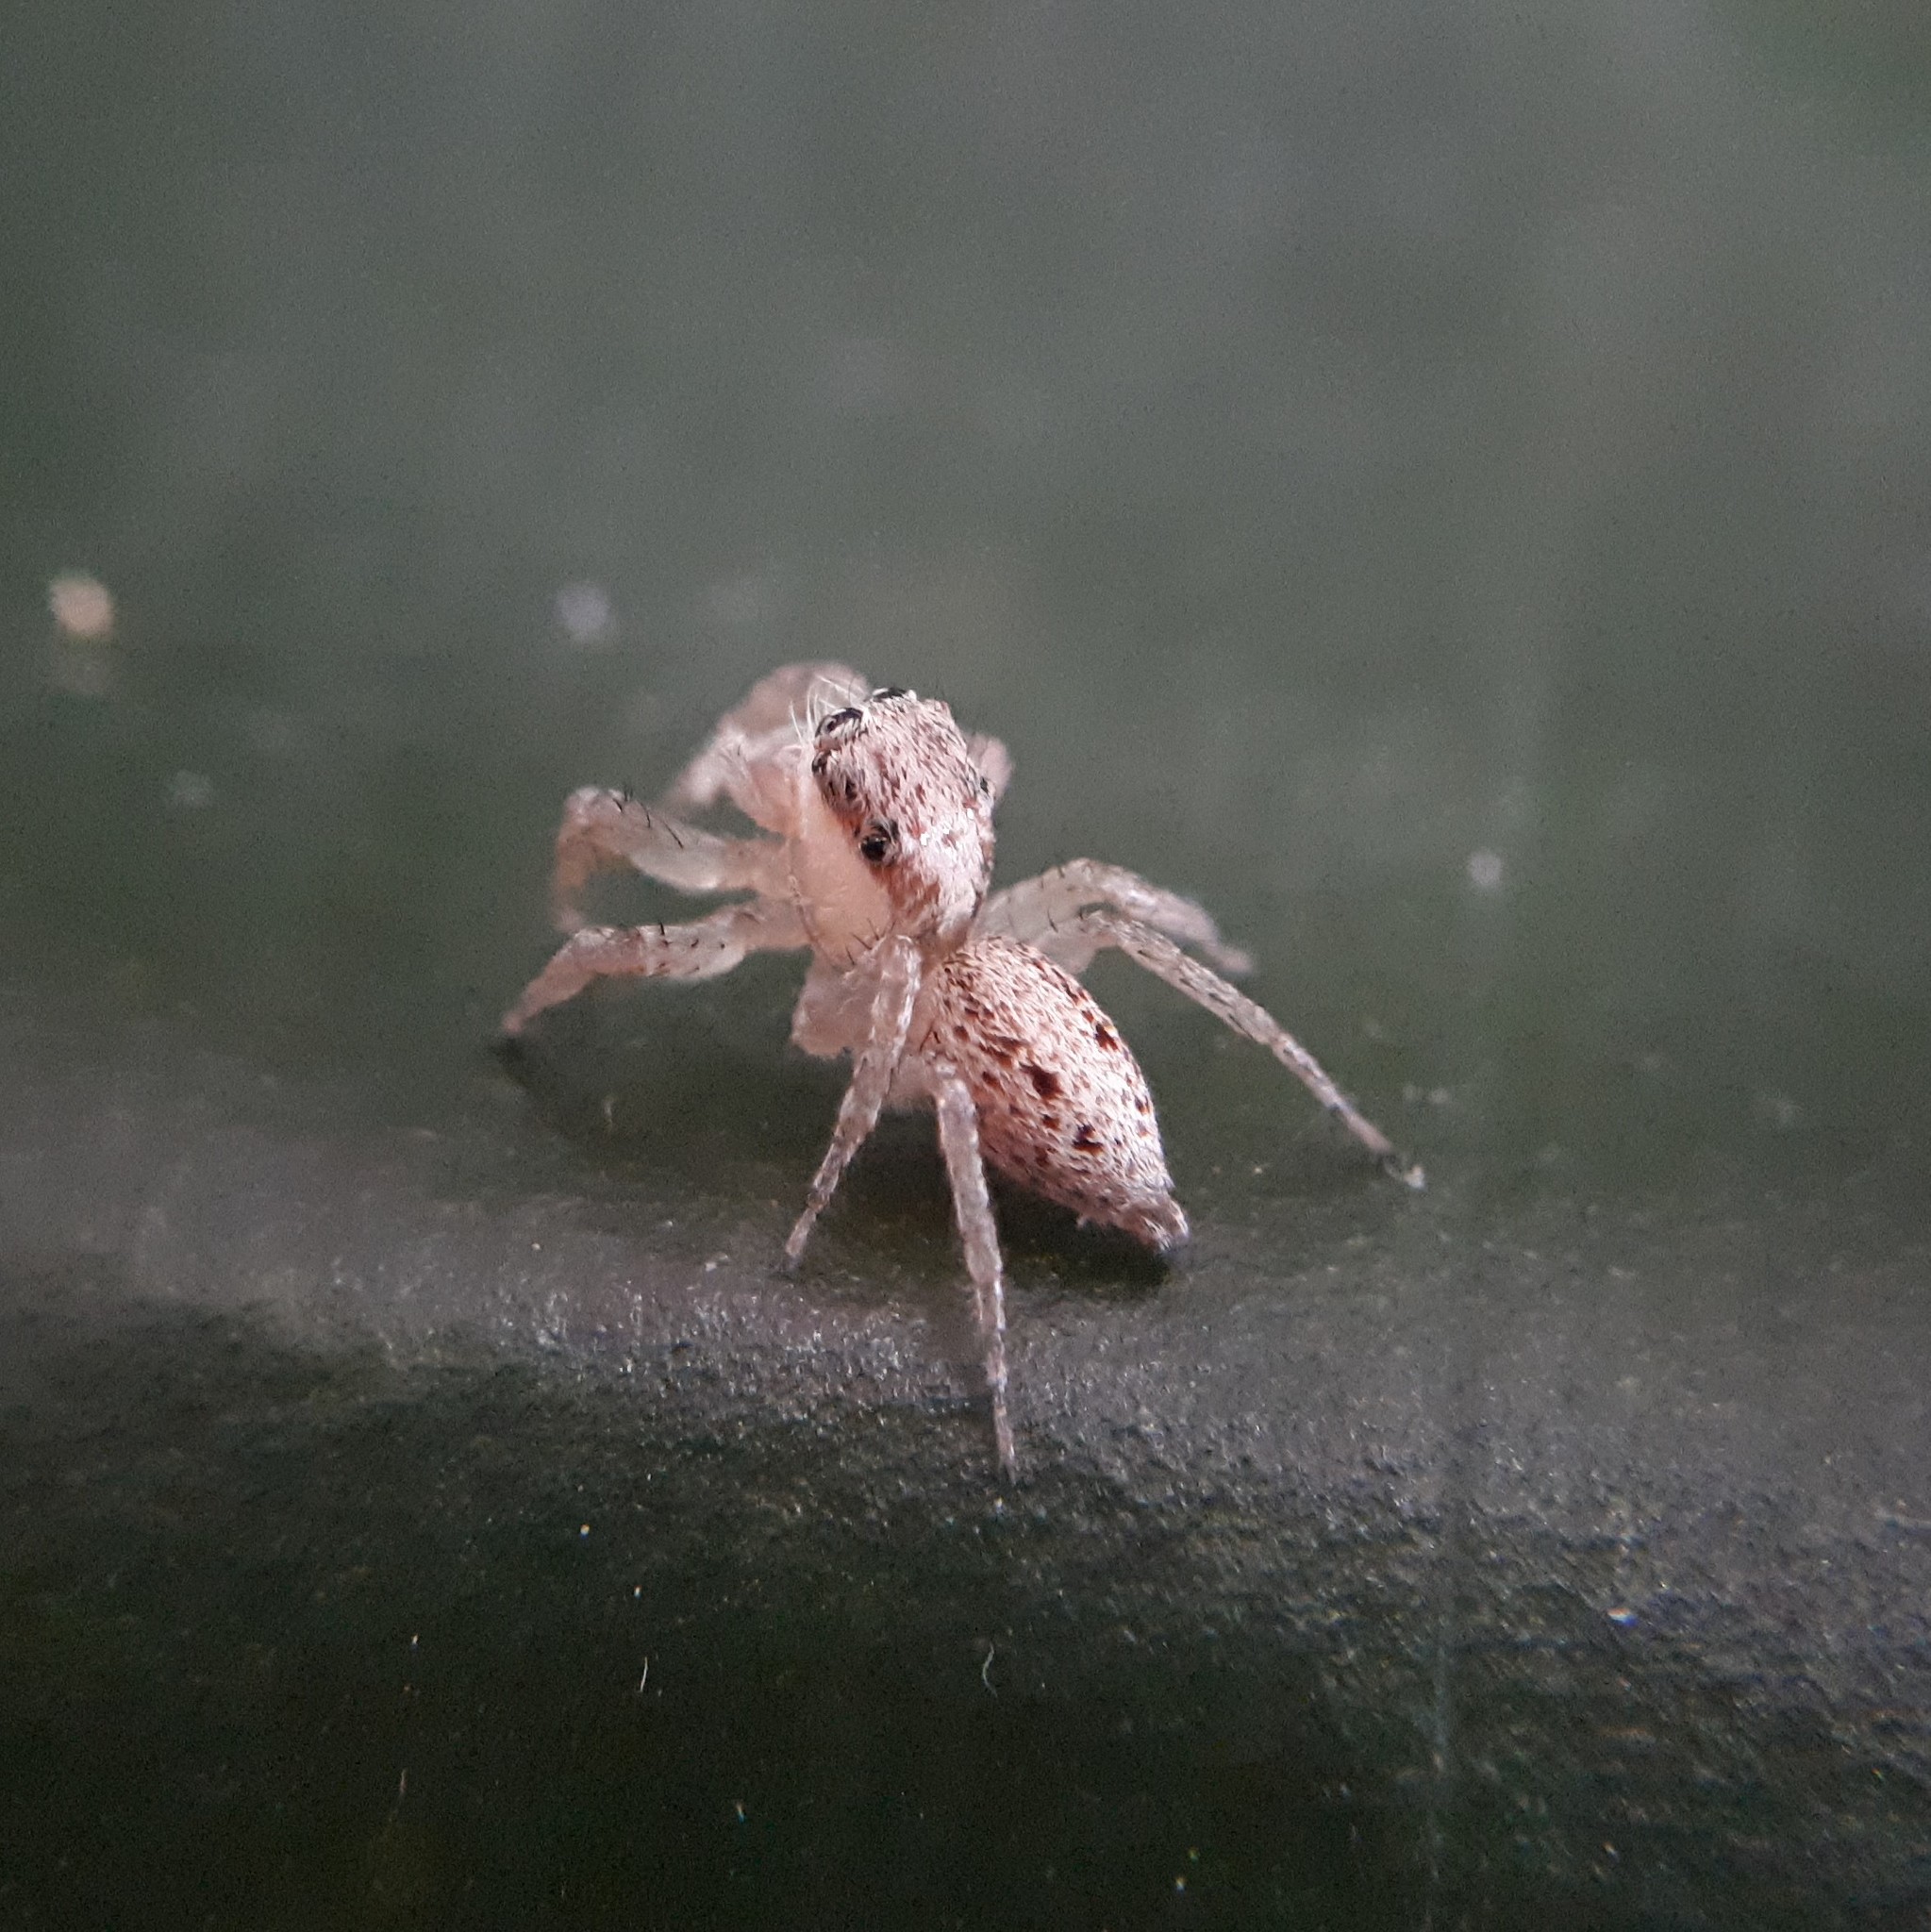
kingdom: Animalia
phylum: Arthropoda
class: Arachnida
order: Araneae
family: Salticidae
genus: Chira
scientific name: Chira lucina
